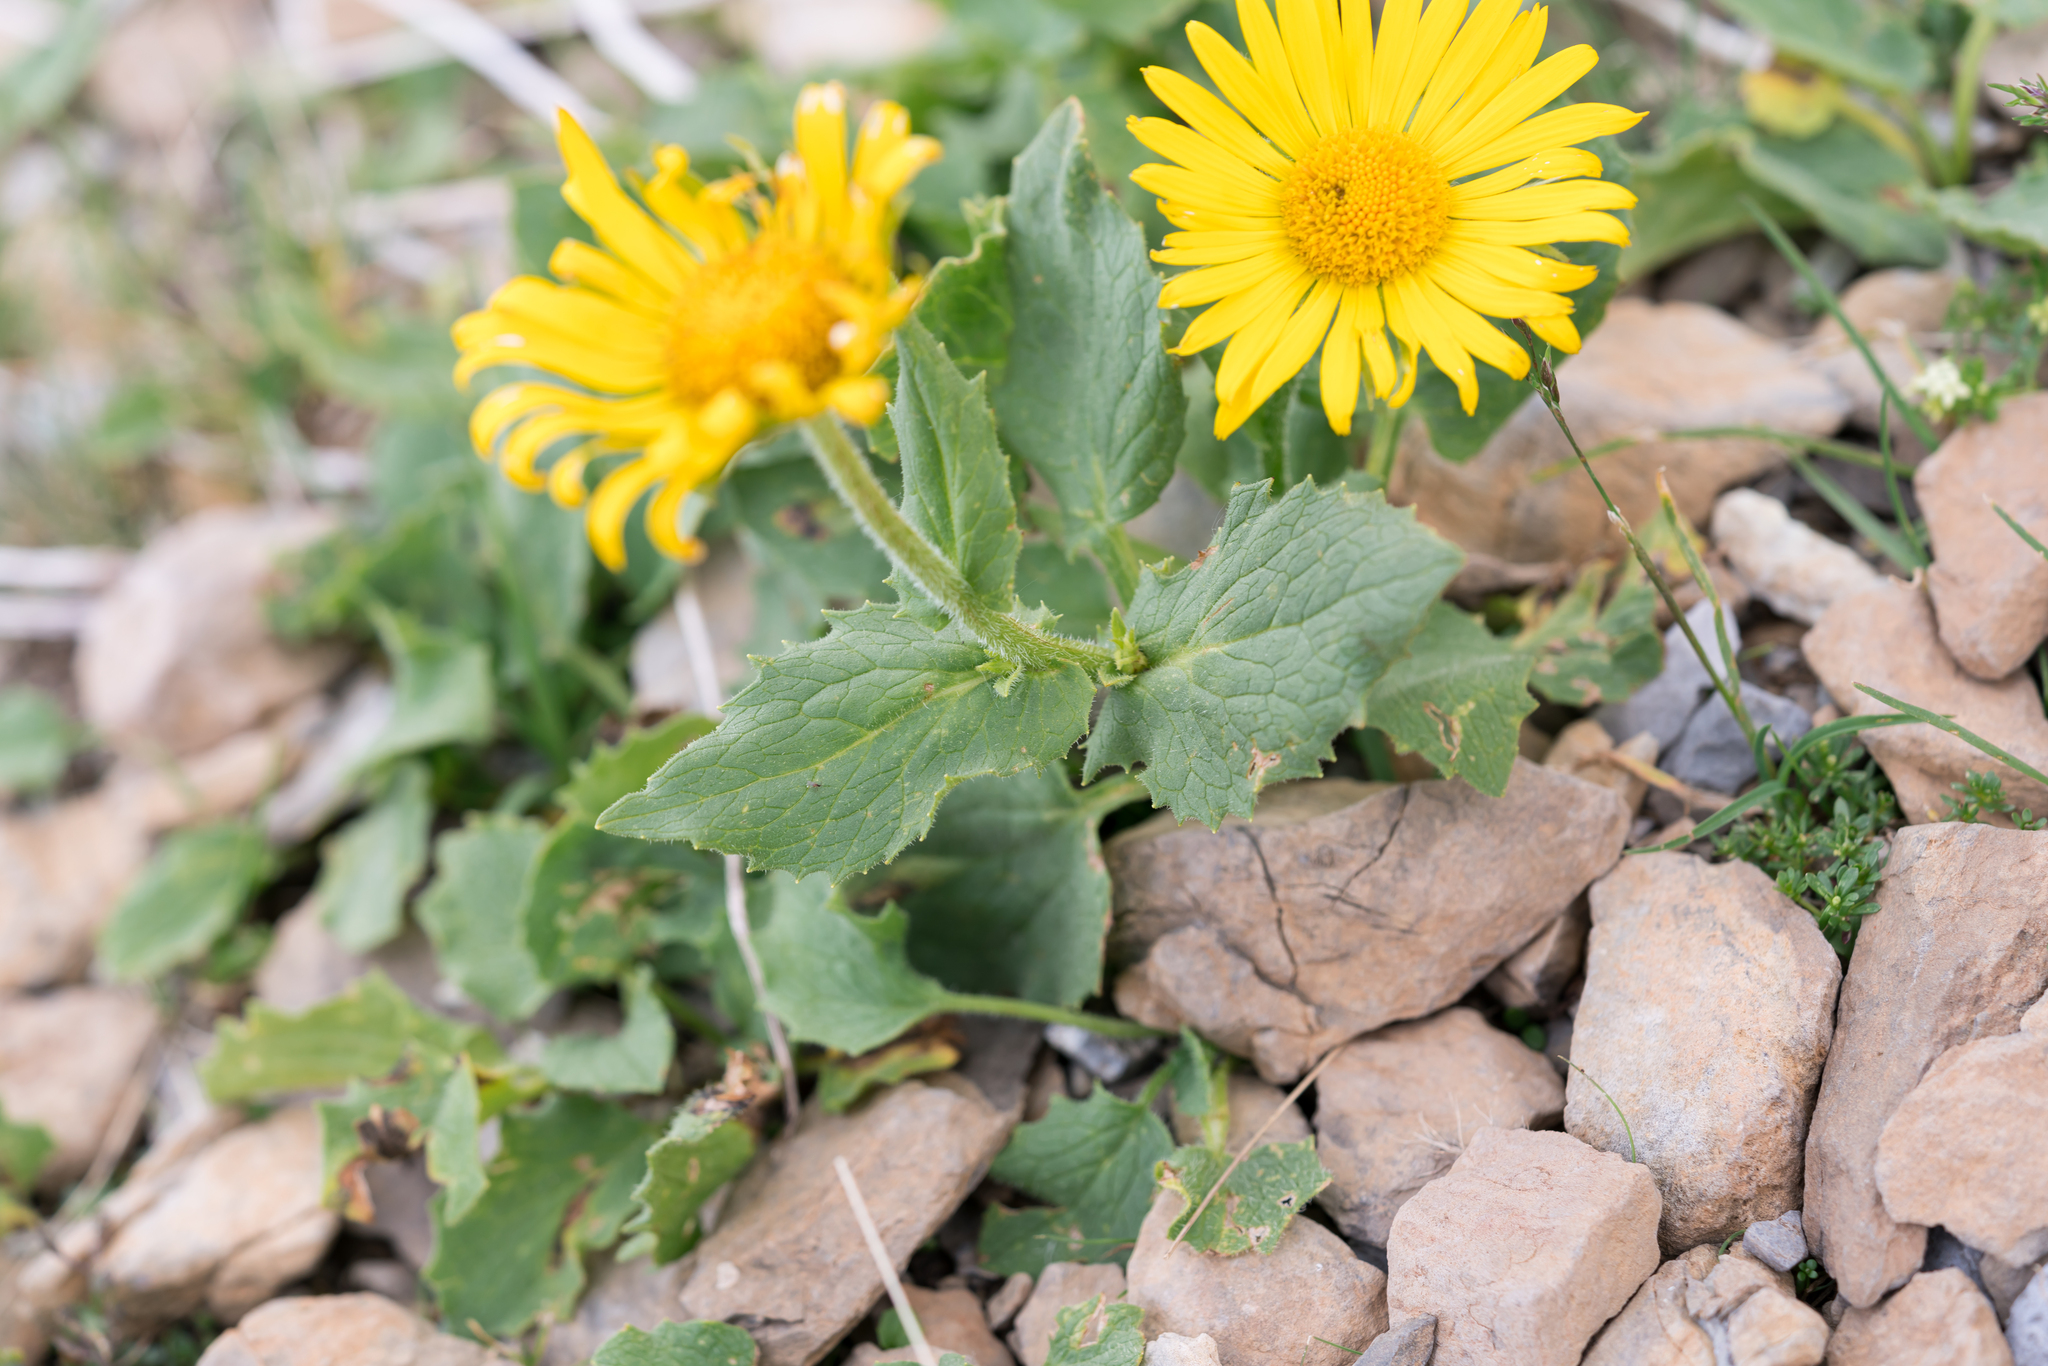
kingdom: Plantae
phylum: Tracheophyta
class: Magnoliopsida
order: Asterales
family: Asteraceae
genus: Doronicum
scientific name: Doronicum grandiflorum
